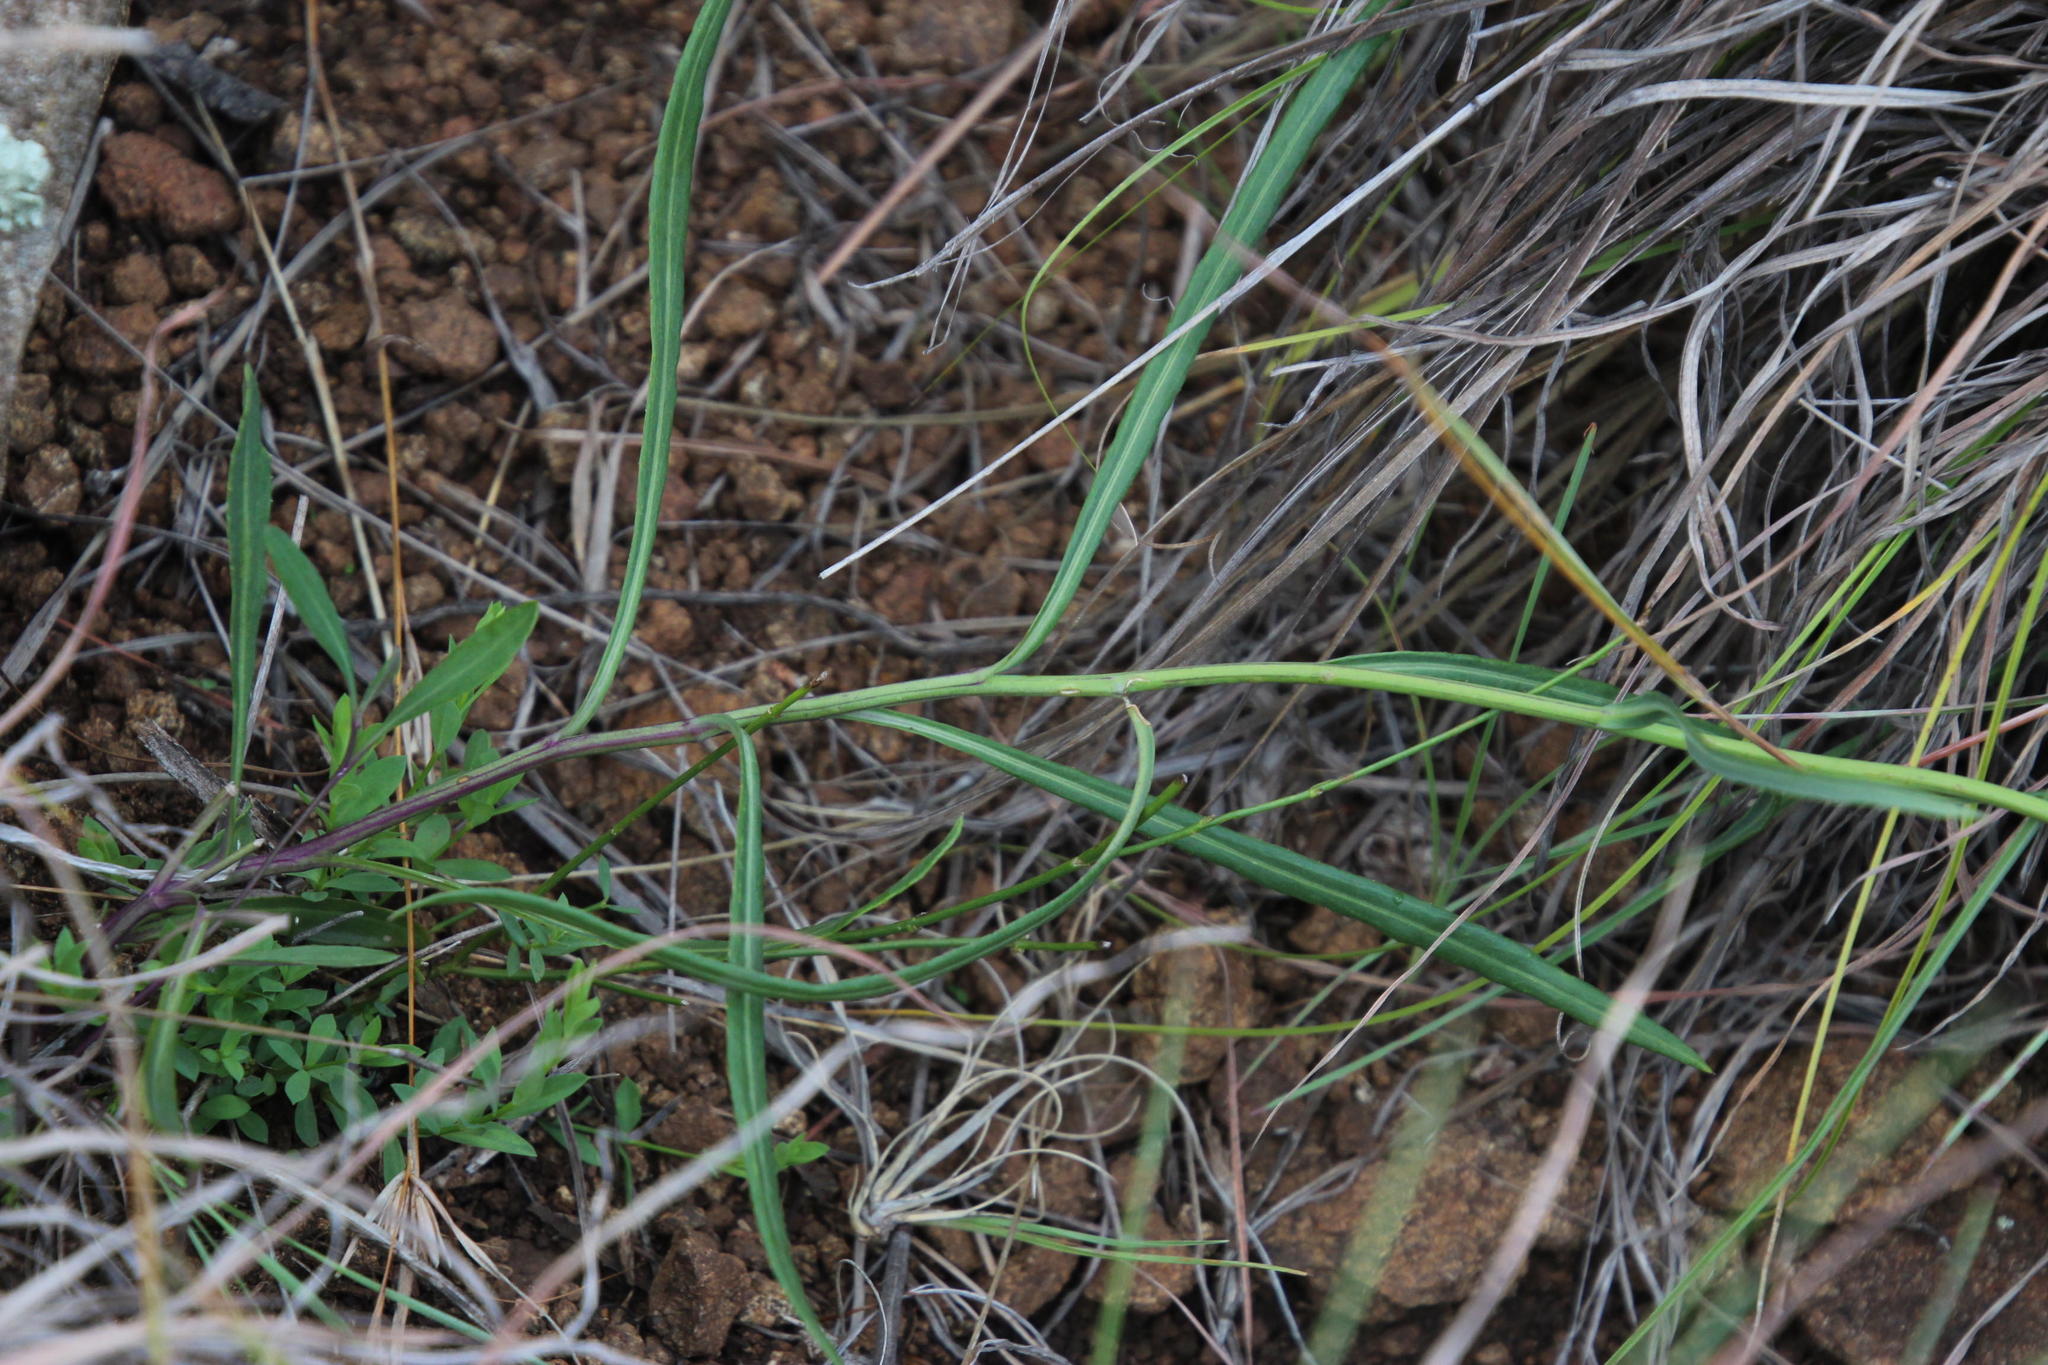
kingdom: Plantae
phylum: Tracheophyta
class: Magnoliopsida
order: Asterales
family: Asteraceae
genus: Senecio
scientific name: Senecio othonniflorus
